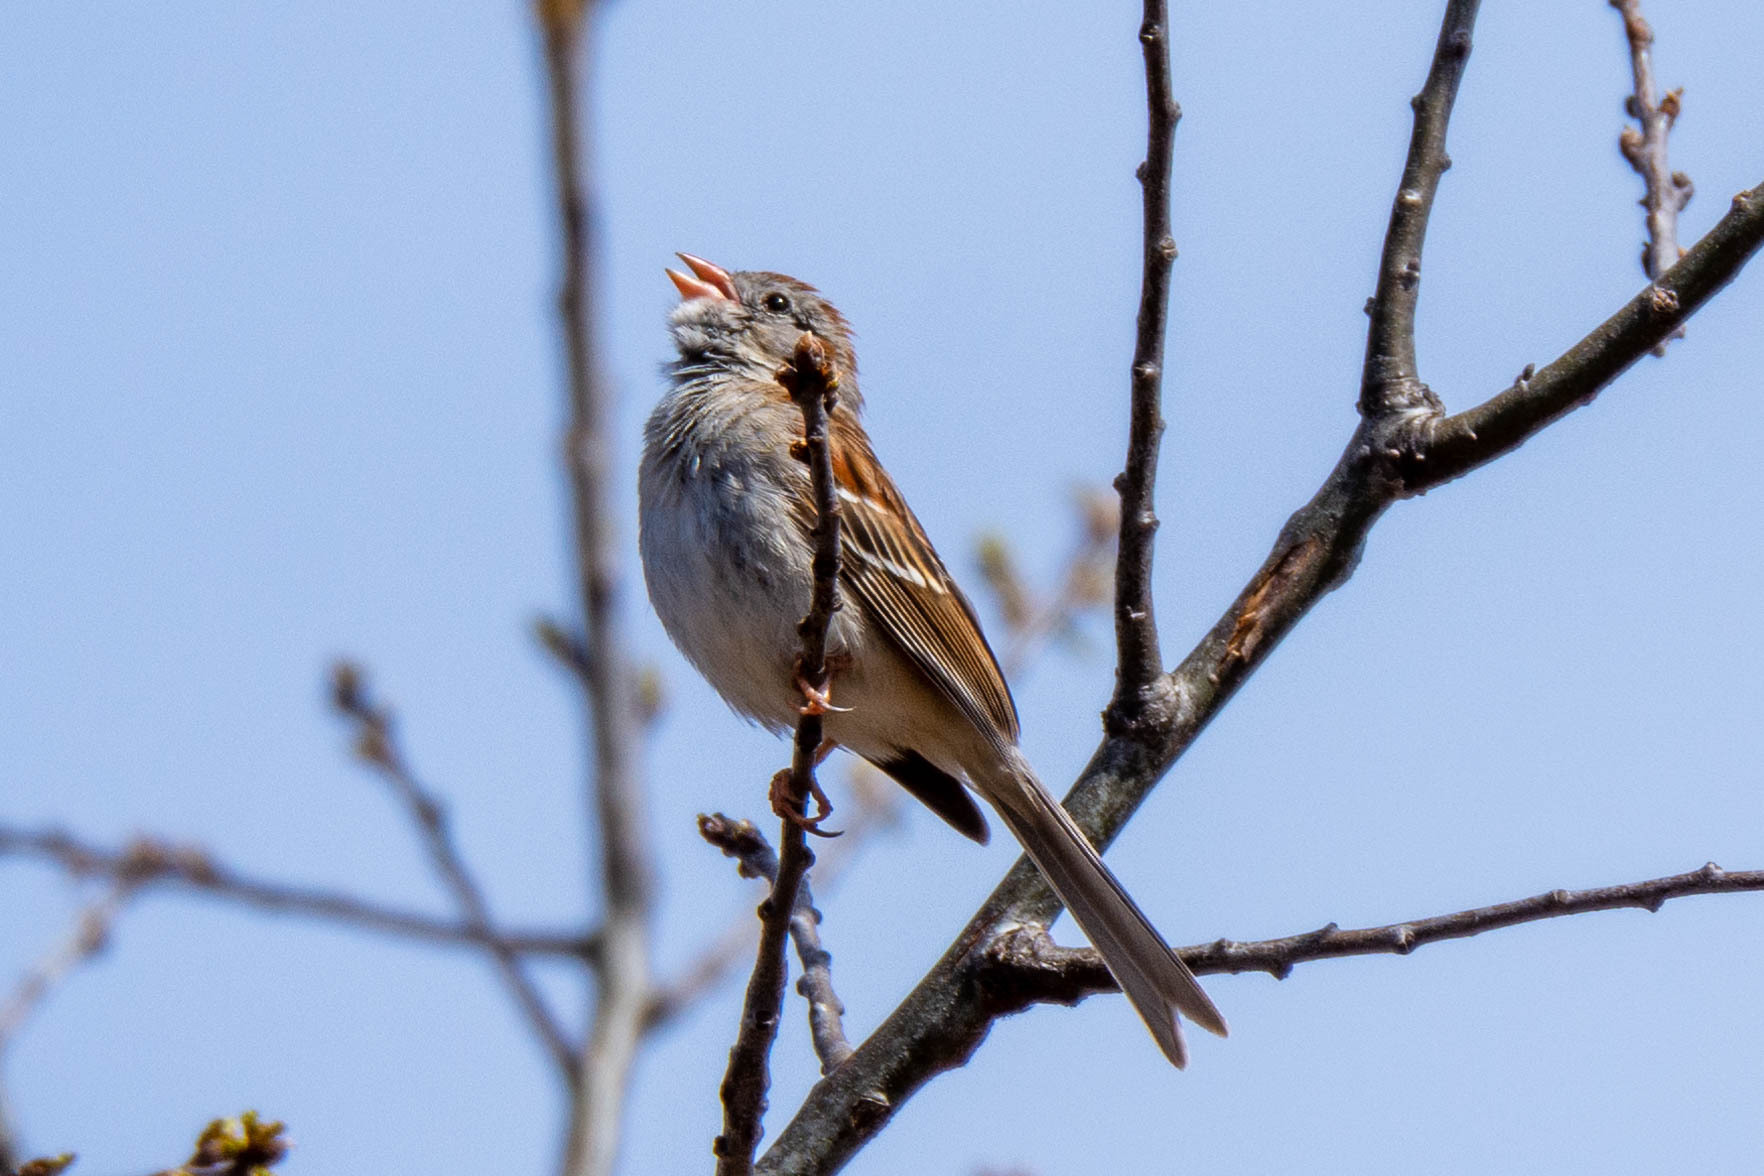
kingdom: Animalia
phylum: Chordata
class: Aves
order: Passeriformes
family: Passerellidae
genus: Spizella
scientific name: Spizella pusilla
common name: Field sparrow
